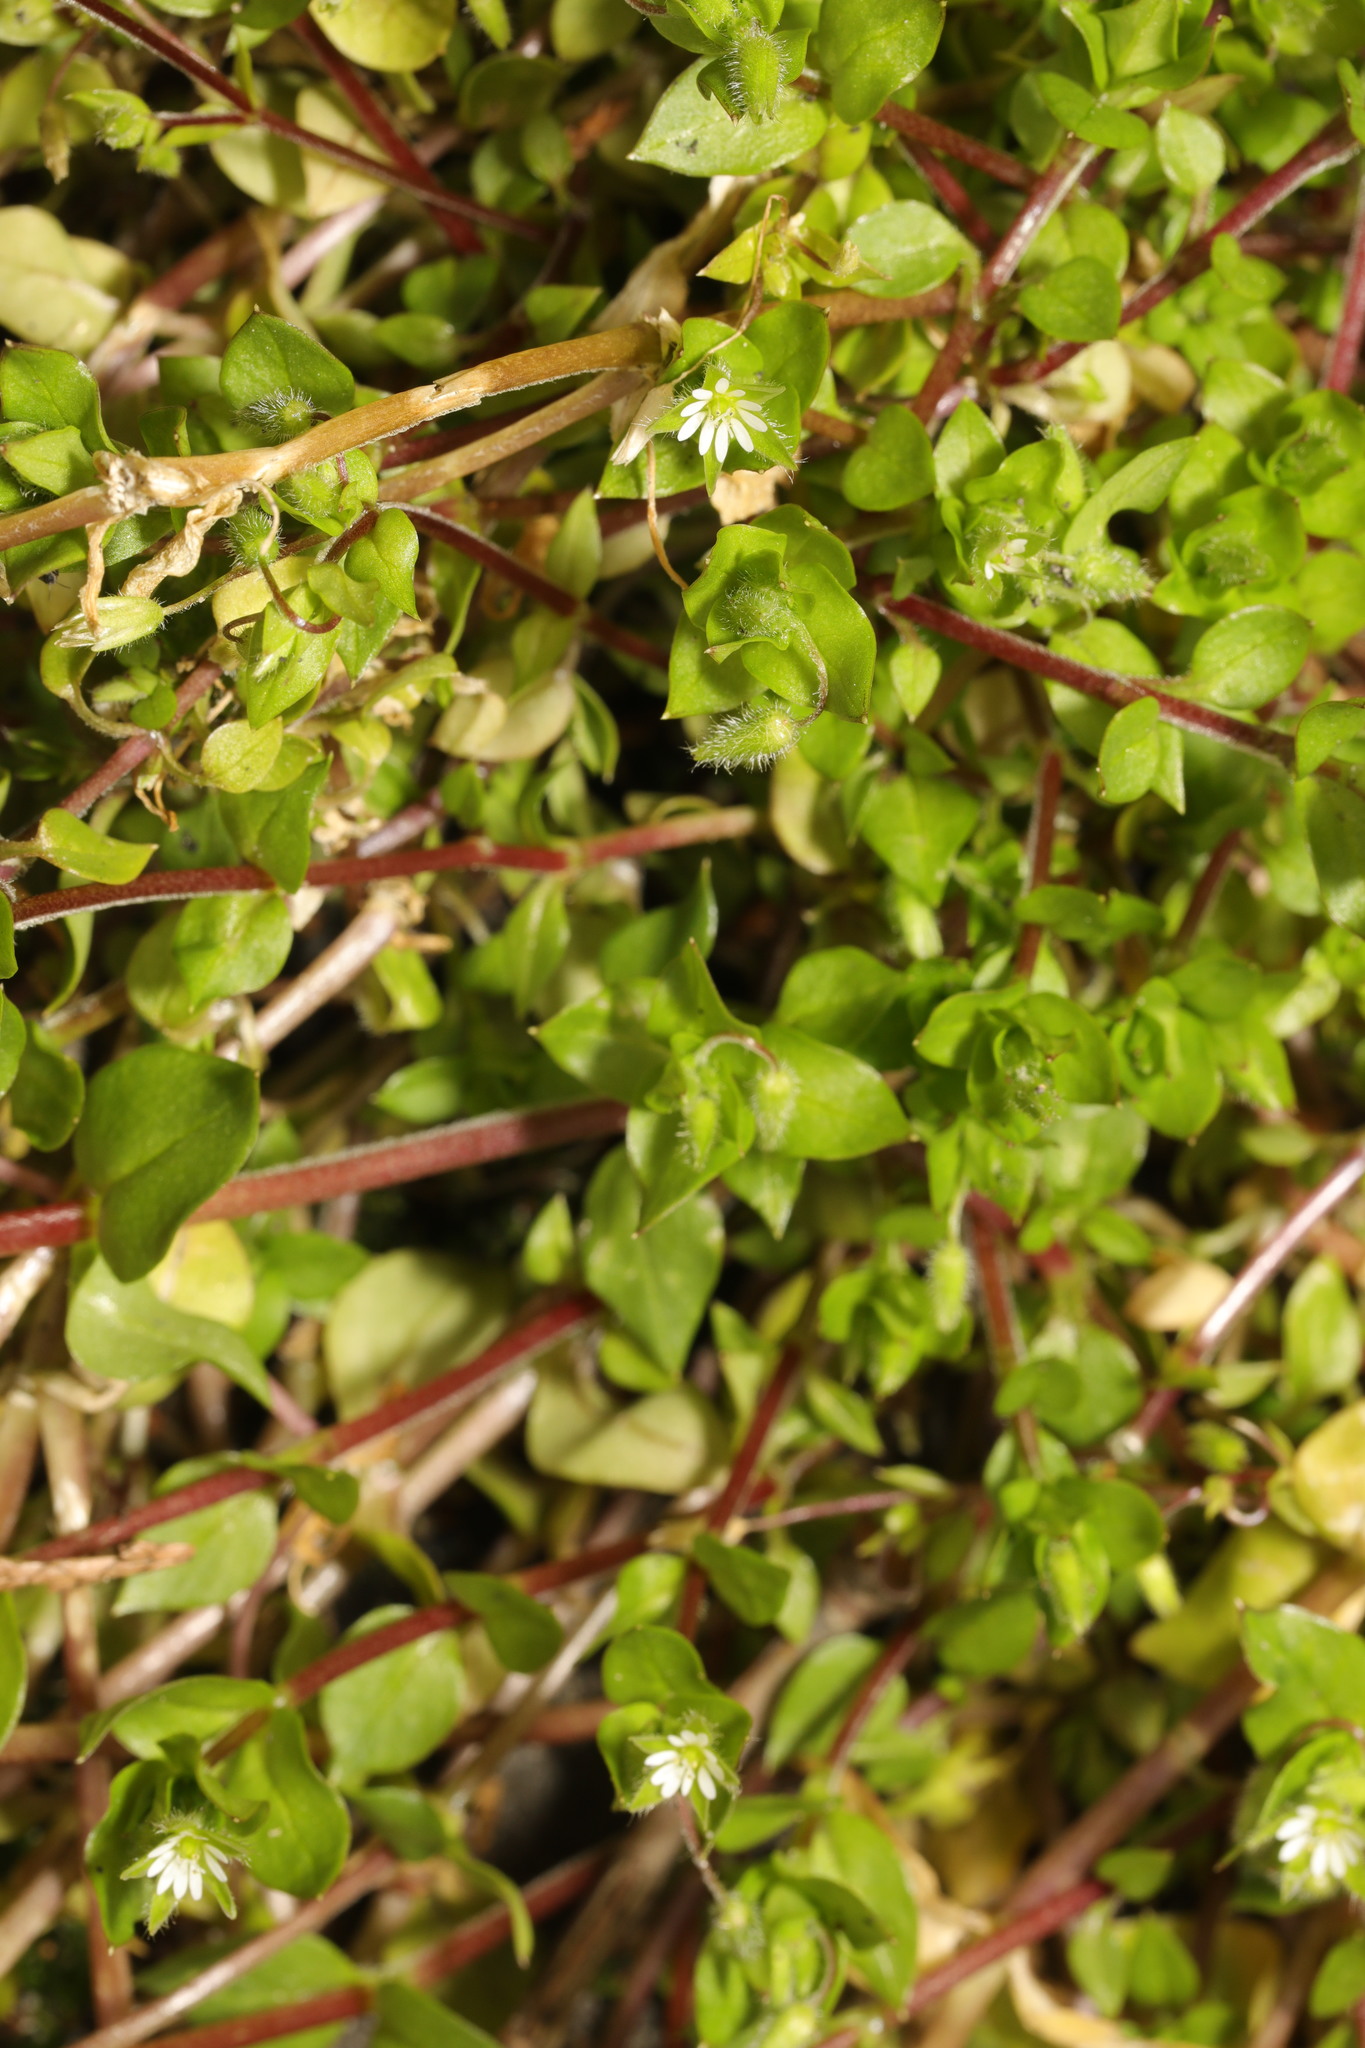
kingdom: Plantae
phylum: Tracheophyta
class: Magnoliopsida
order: Caryophyllales
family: Caryophyllaceae
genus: Stellaria
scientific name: Stellaria media
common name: Common chickweed
